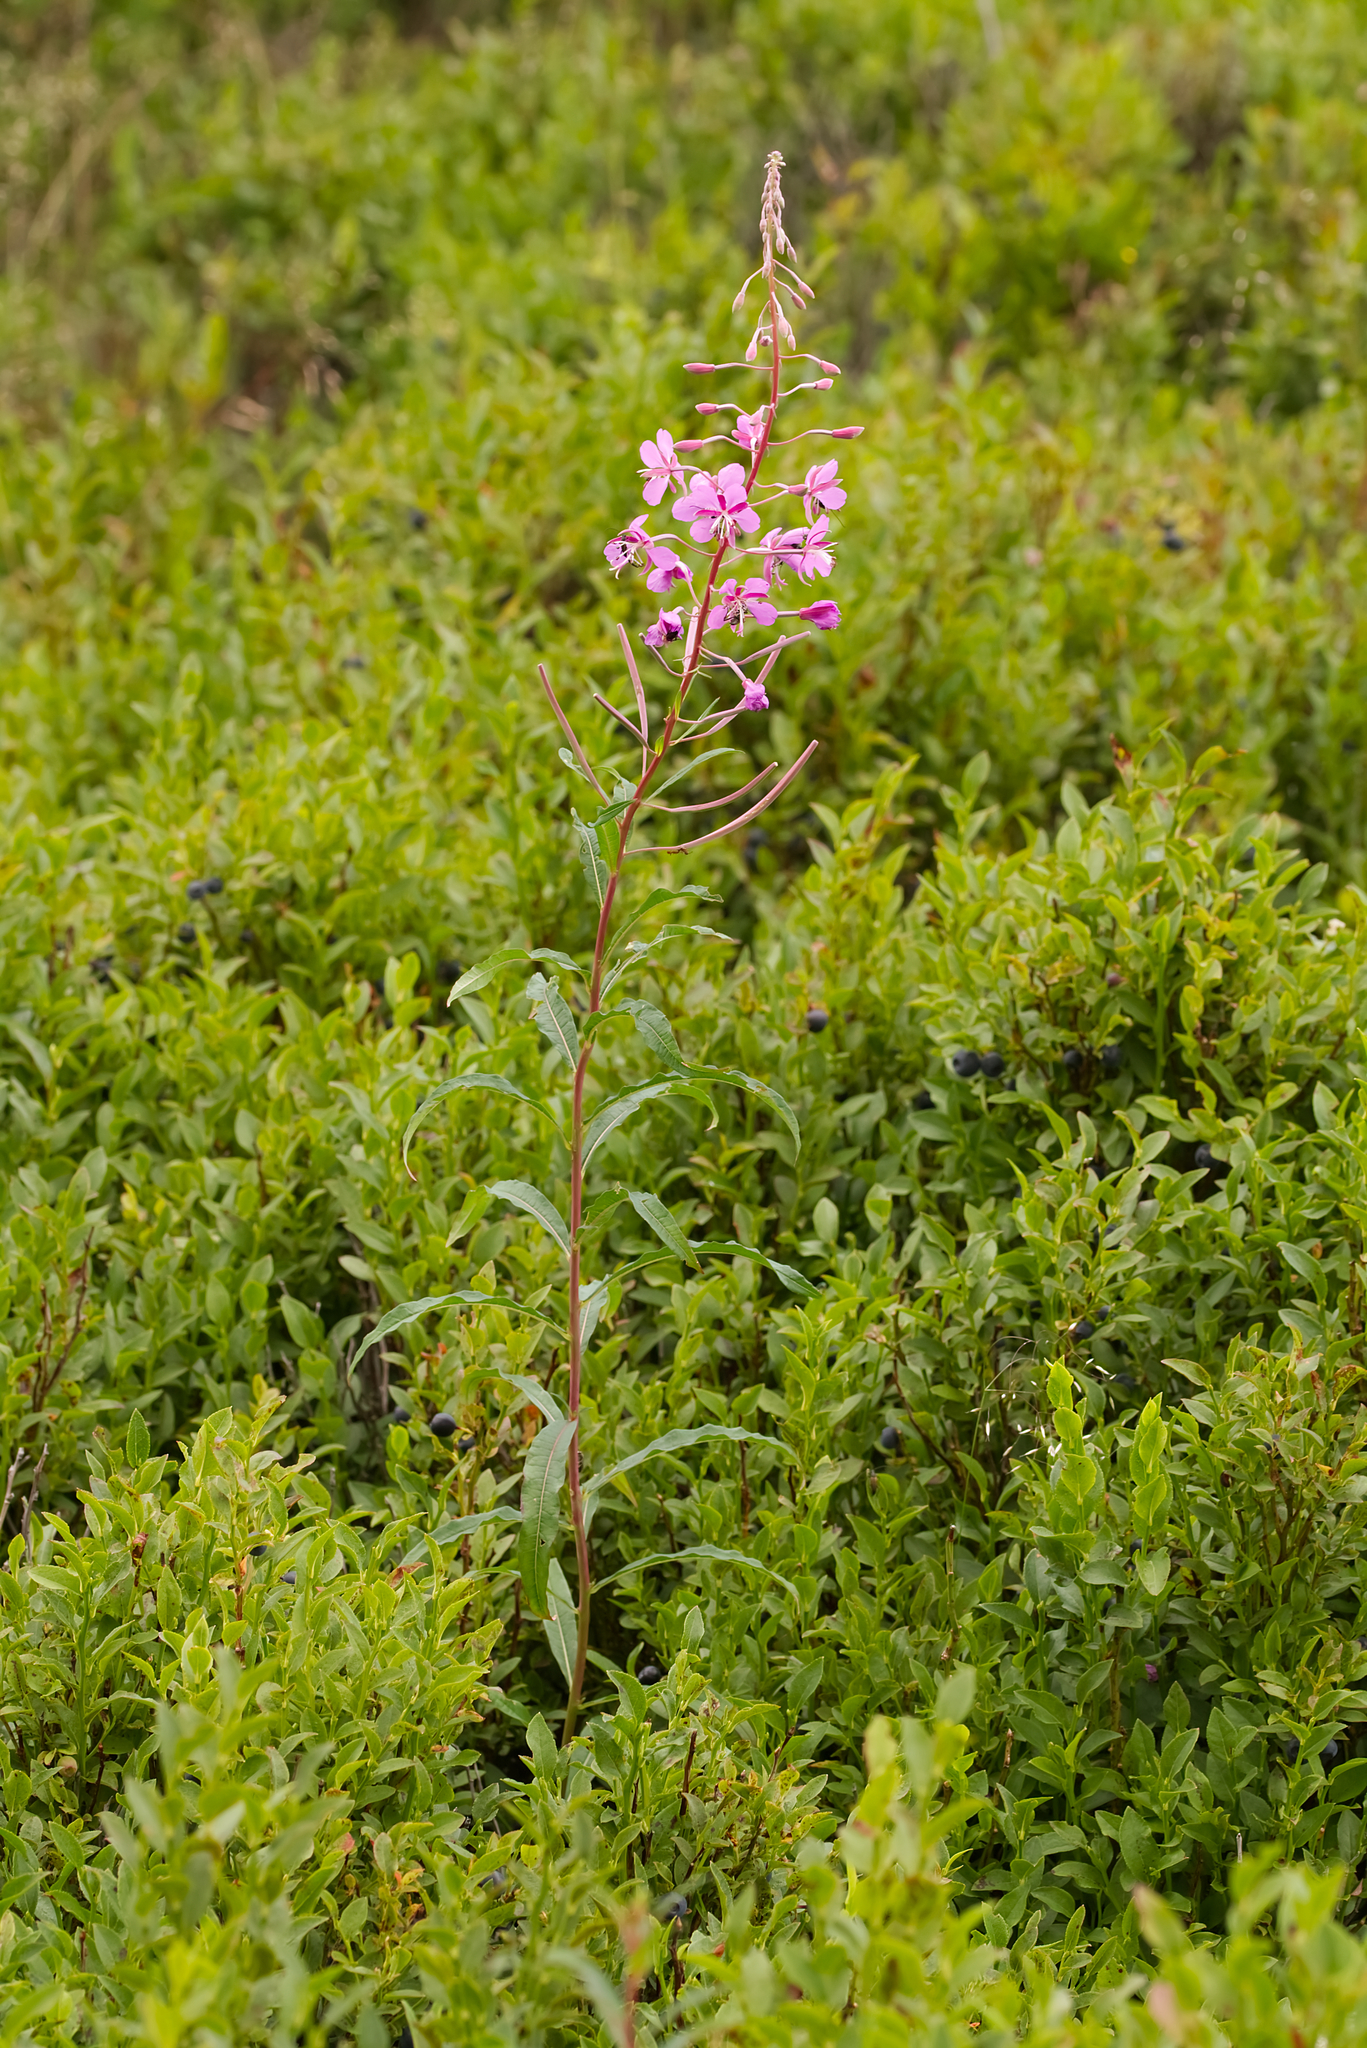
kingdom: Plantae
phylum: Tracheophyta
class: Magnoliopsida
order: Myrtales
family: Onagraceae
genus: Chamaenerion
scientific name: Chamaenerion angustifolium
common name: Fireweed
